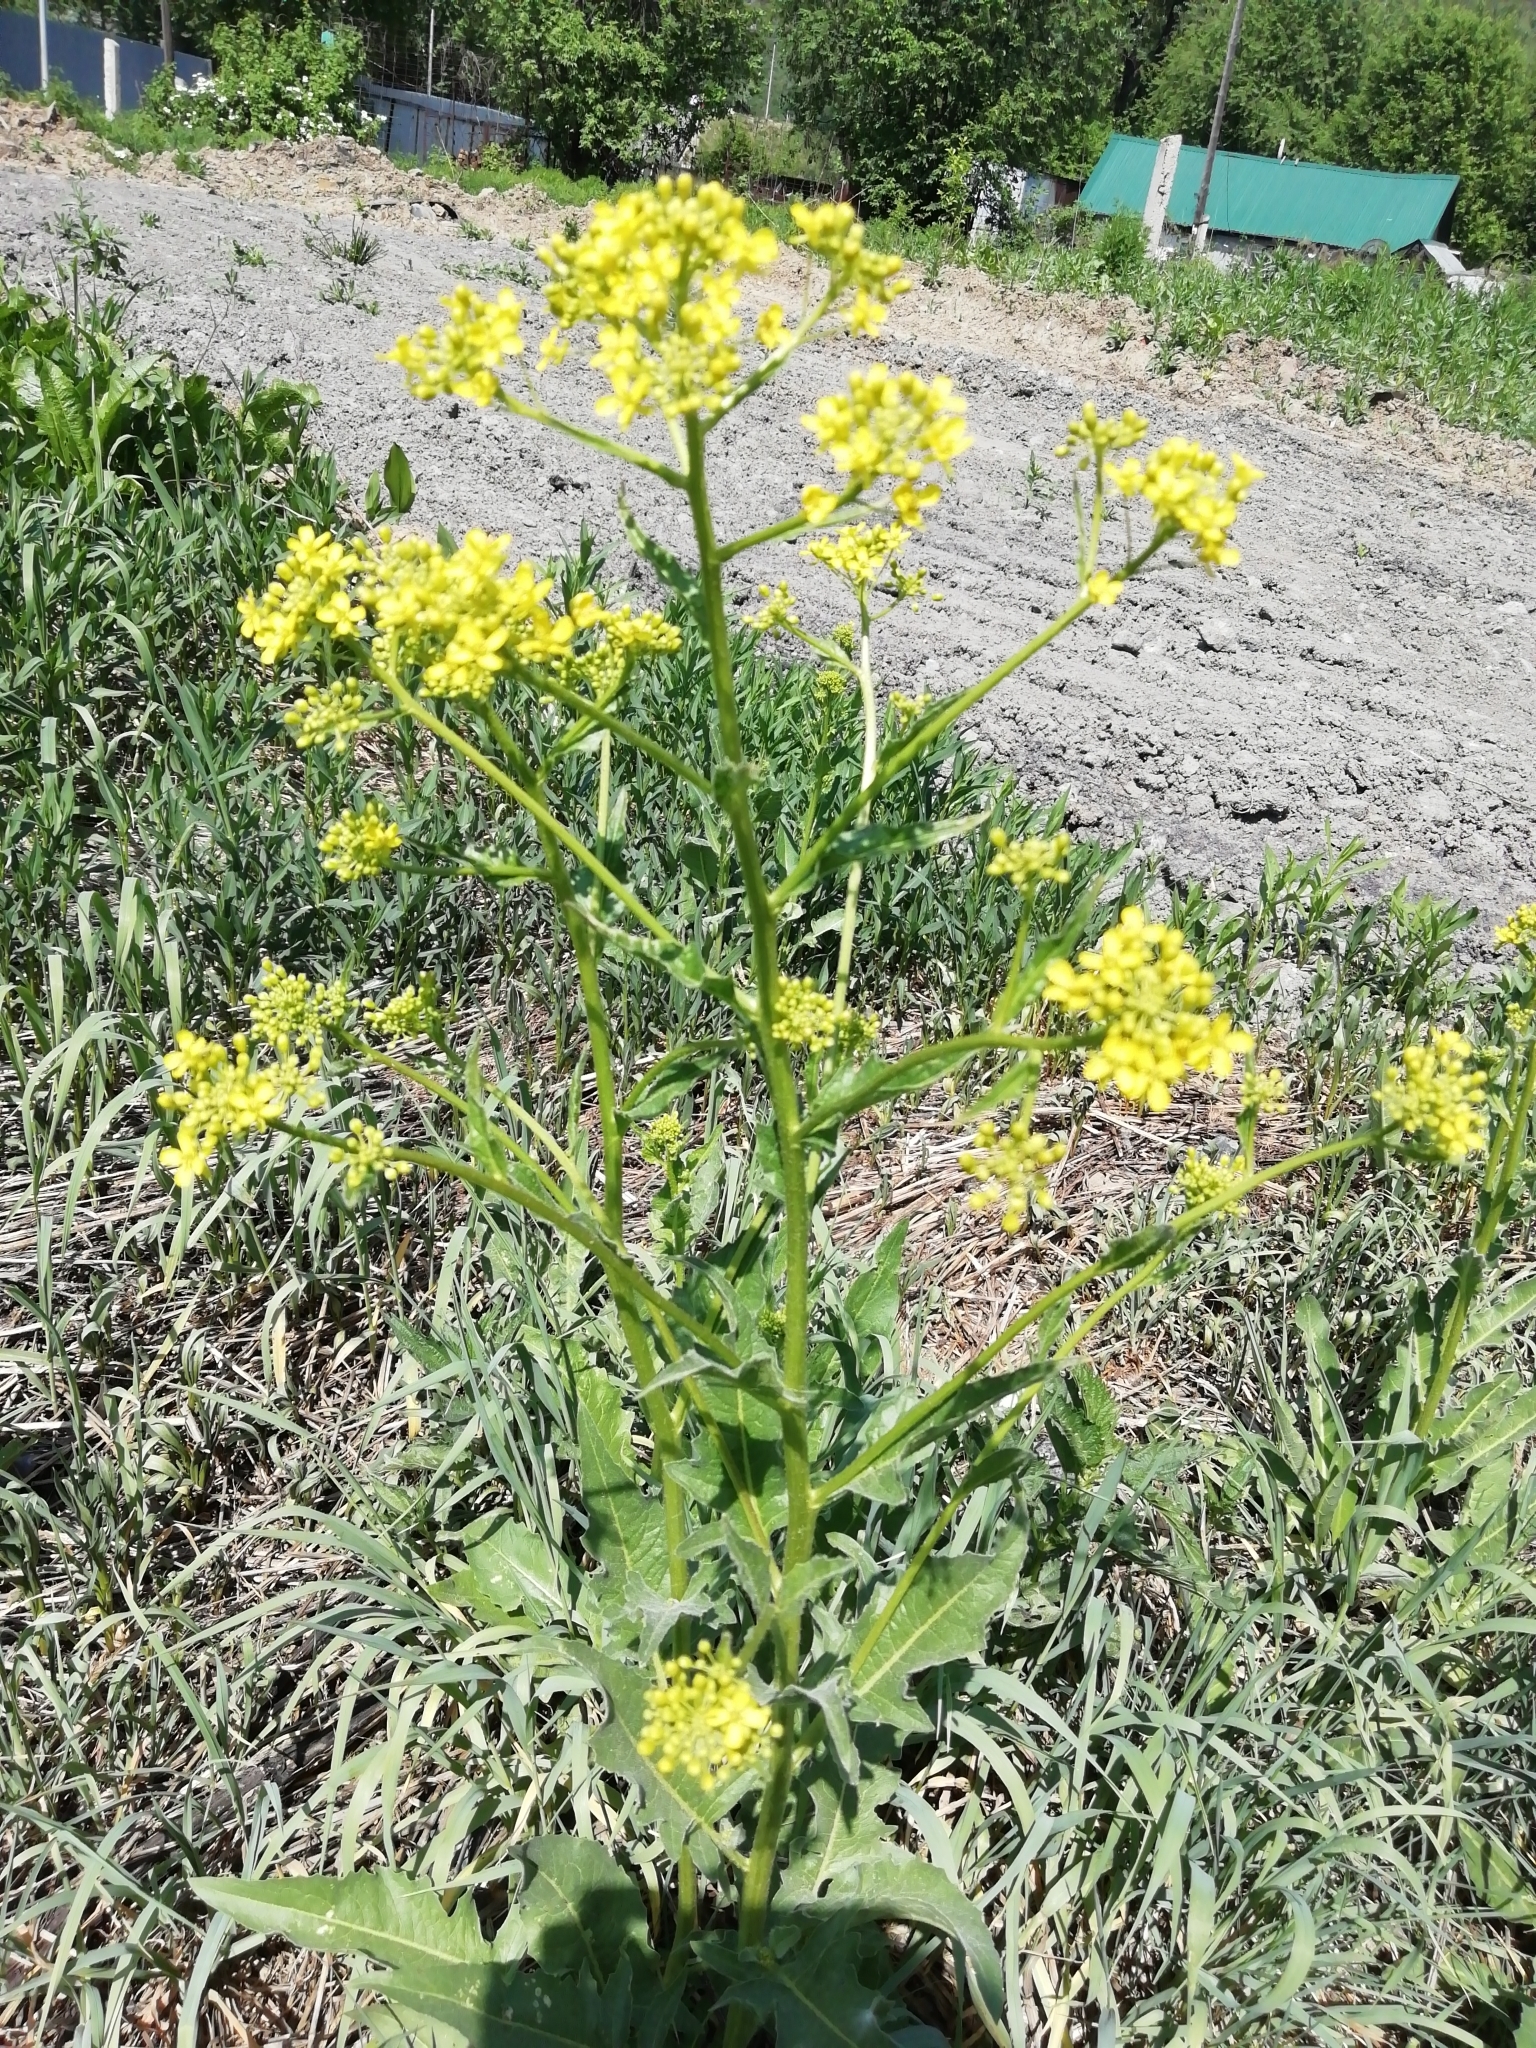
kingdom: Plantae
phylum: Tracheophyta
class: Magnoliopsida
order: Brassicales
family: Brassicaceae
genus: Bunias
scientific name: Bunias orientalis
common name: Warty-cabbage
